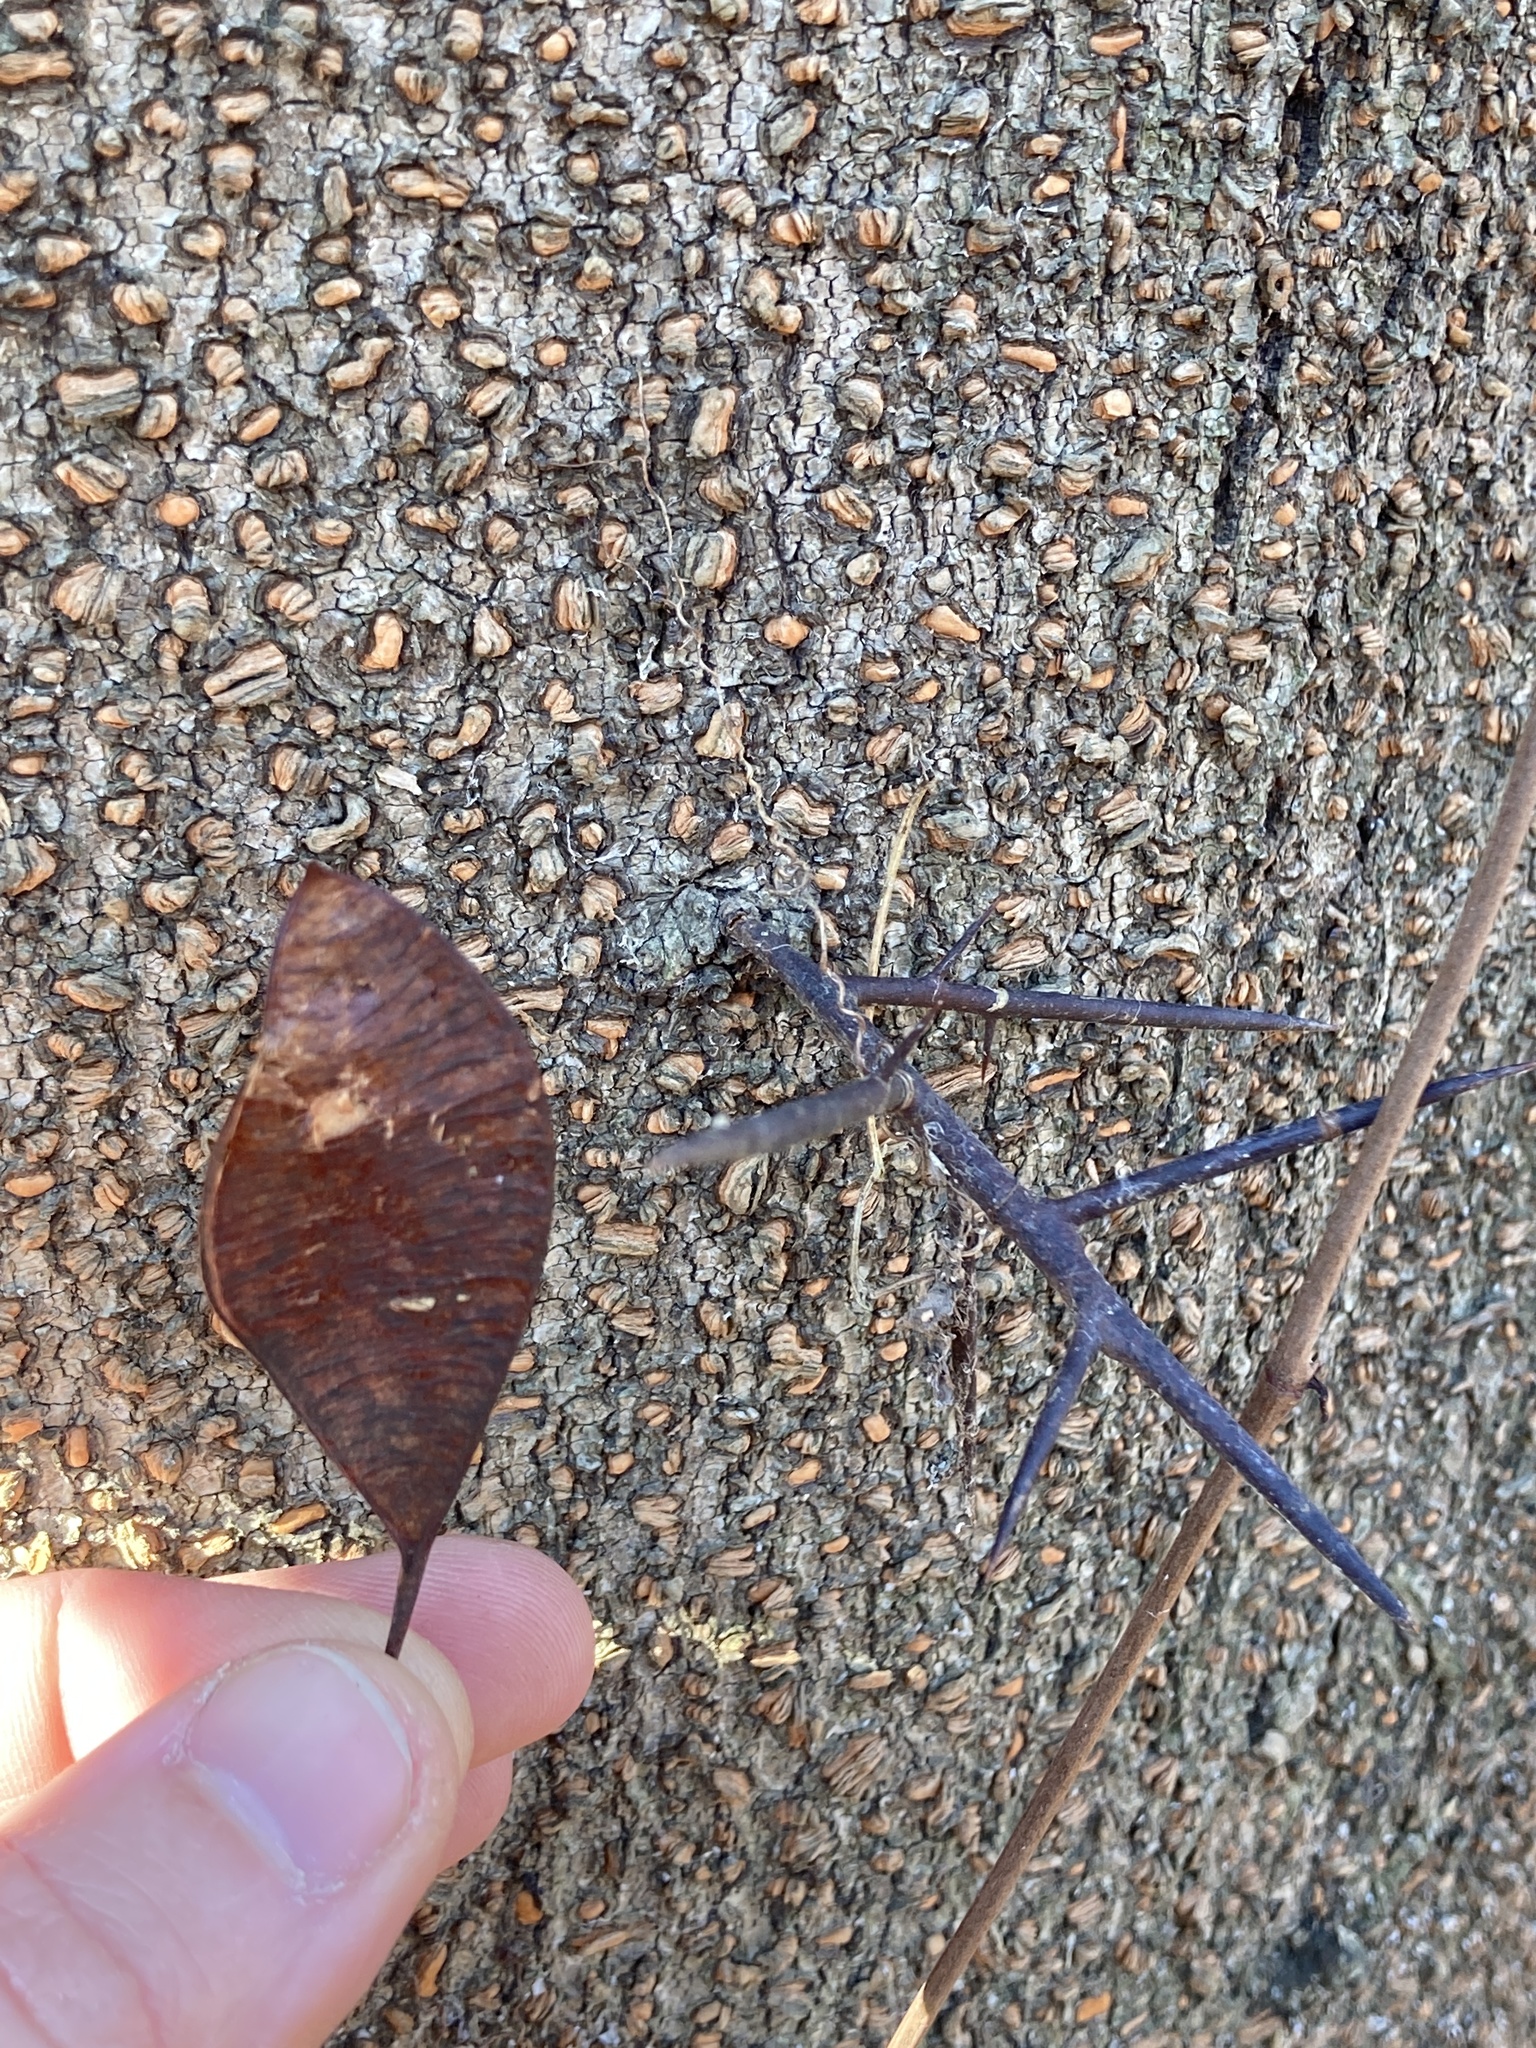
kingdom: Plantae
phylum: Tracheophyta
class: Magnoliopsida
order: Fabales
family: Fabaceae
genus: Gleditsia
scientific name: Gleditsia aquatica
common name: Swamp-locust
